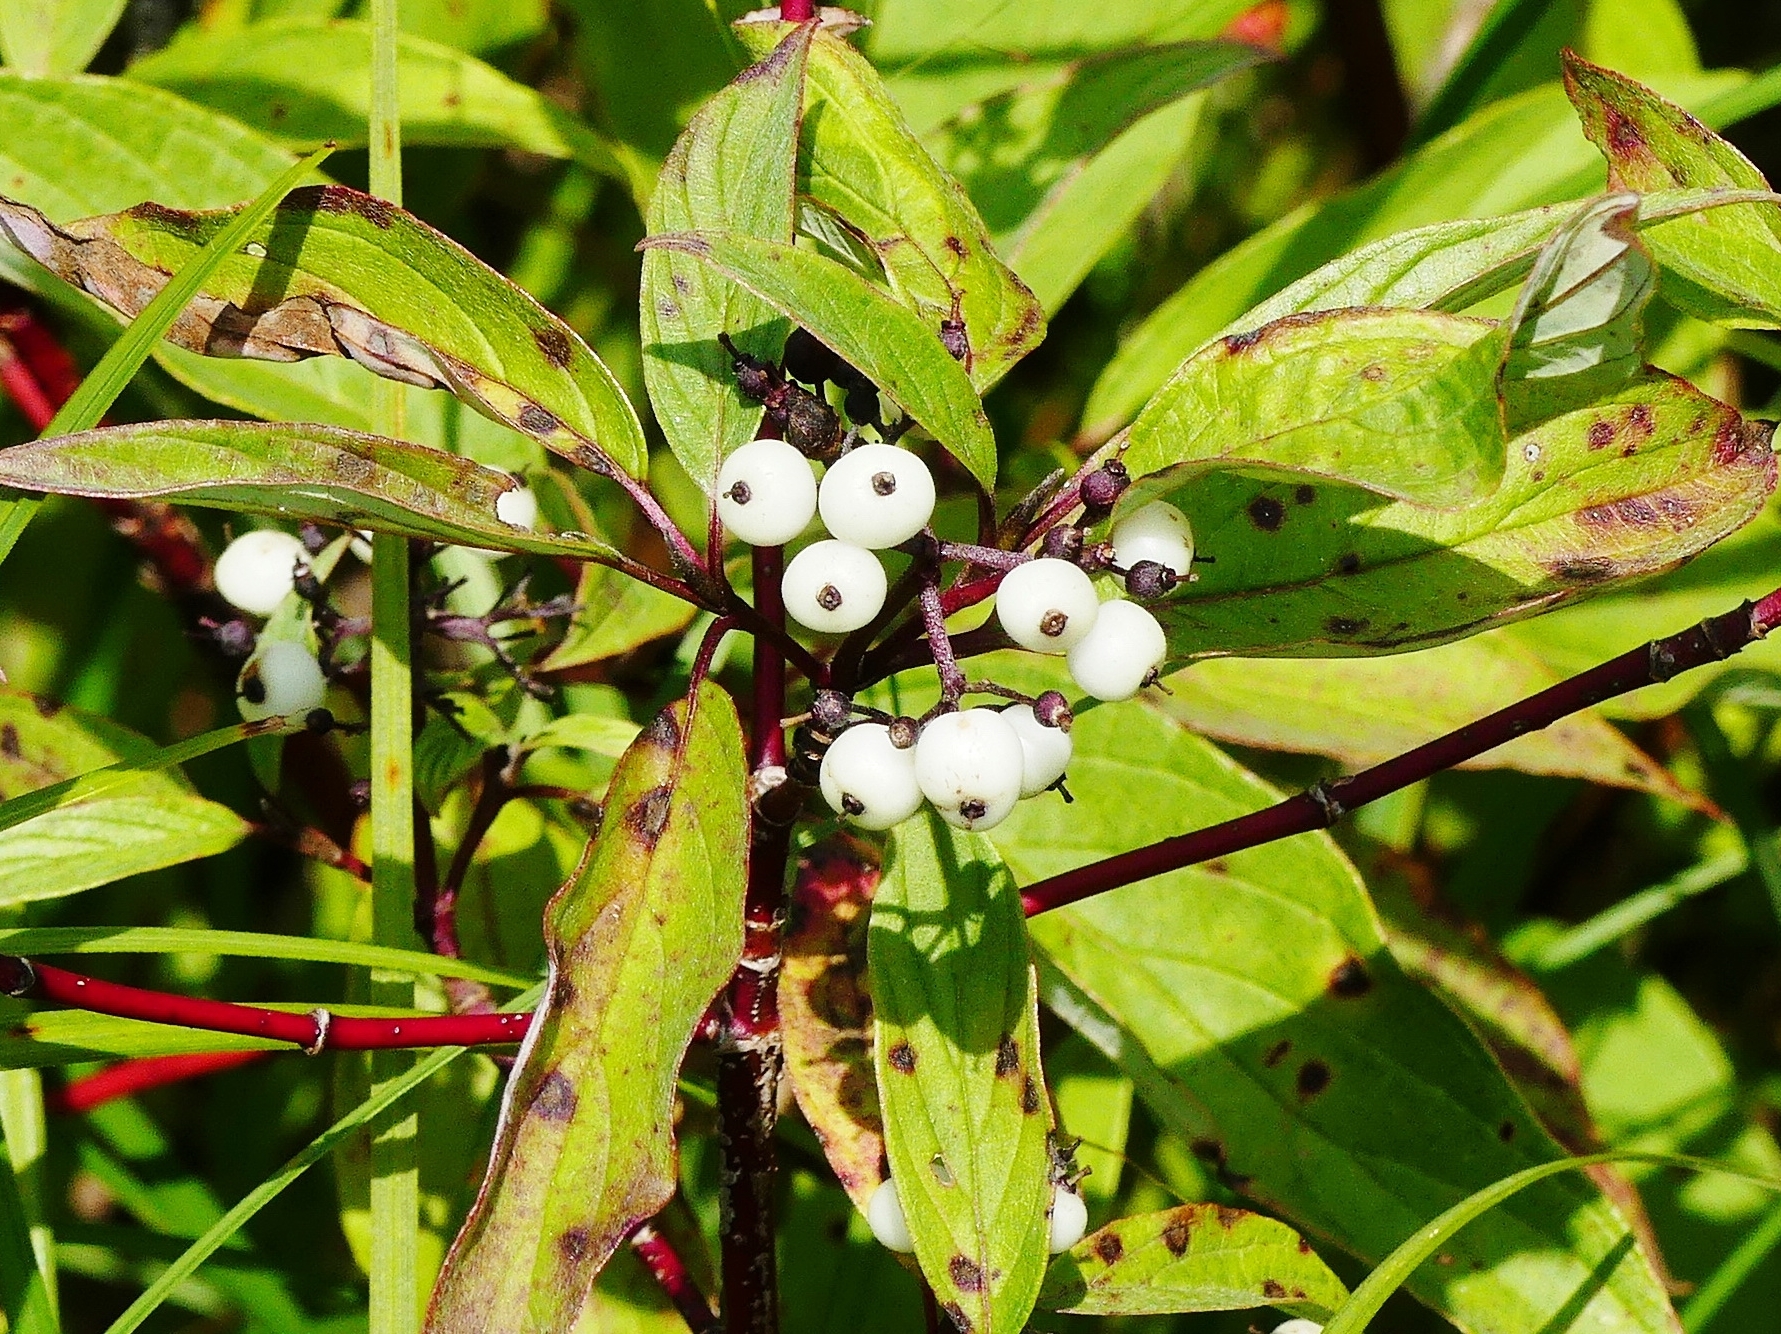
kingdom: Plantae
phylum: Tracheophyta
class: Magnoliopsida
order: Cornales
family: Cornaceae
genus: Cornus
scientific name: Cornus sericea
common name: Red-osier dogwood
